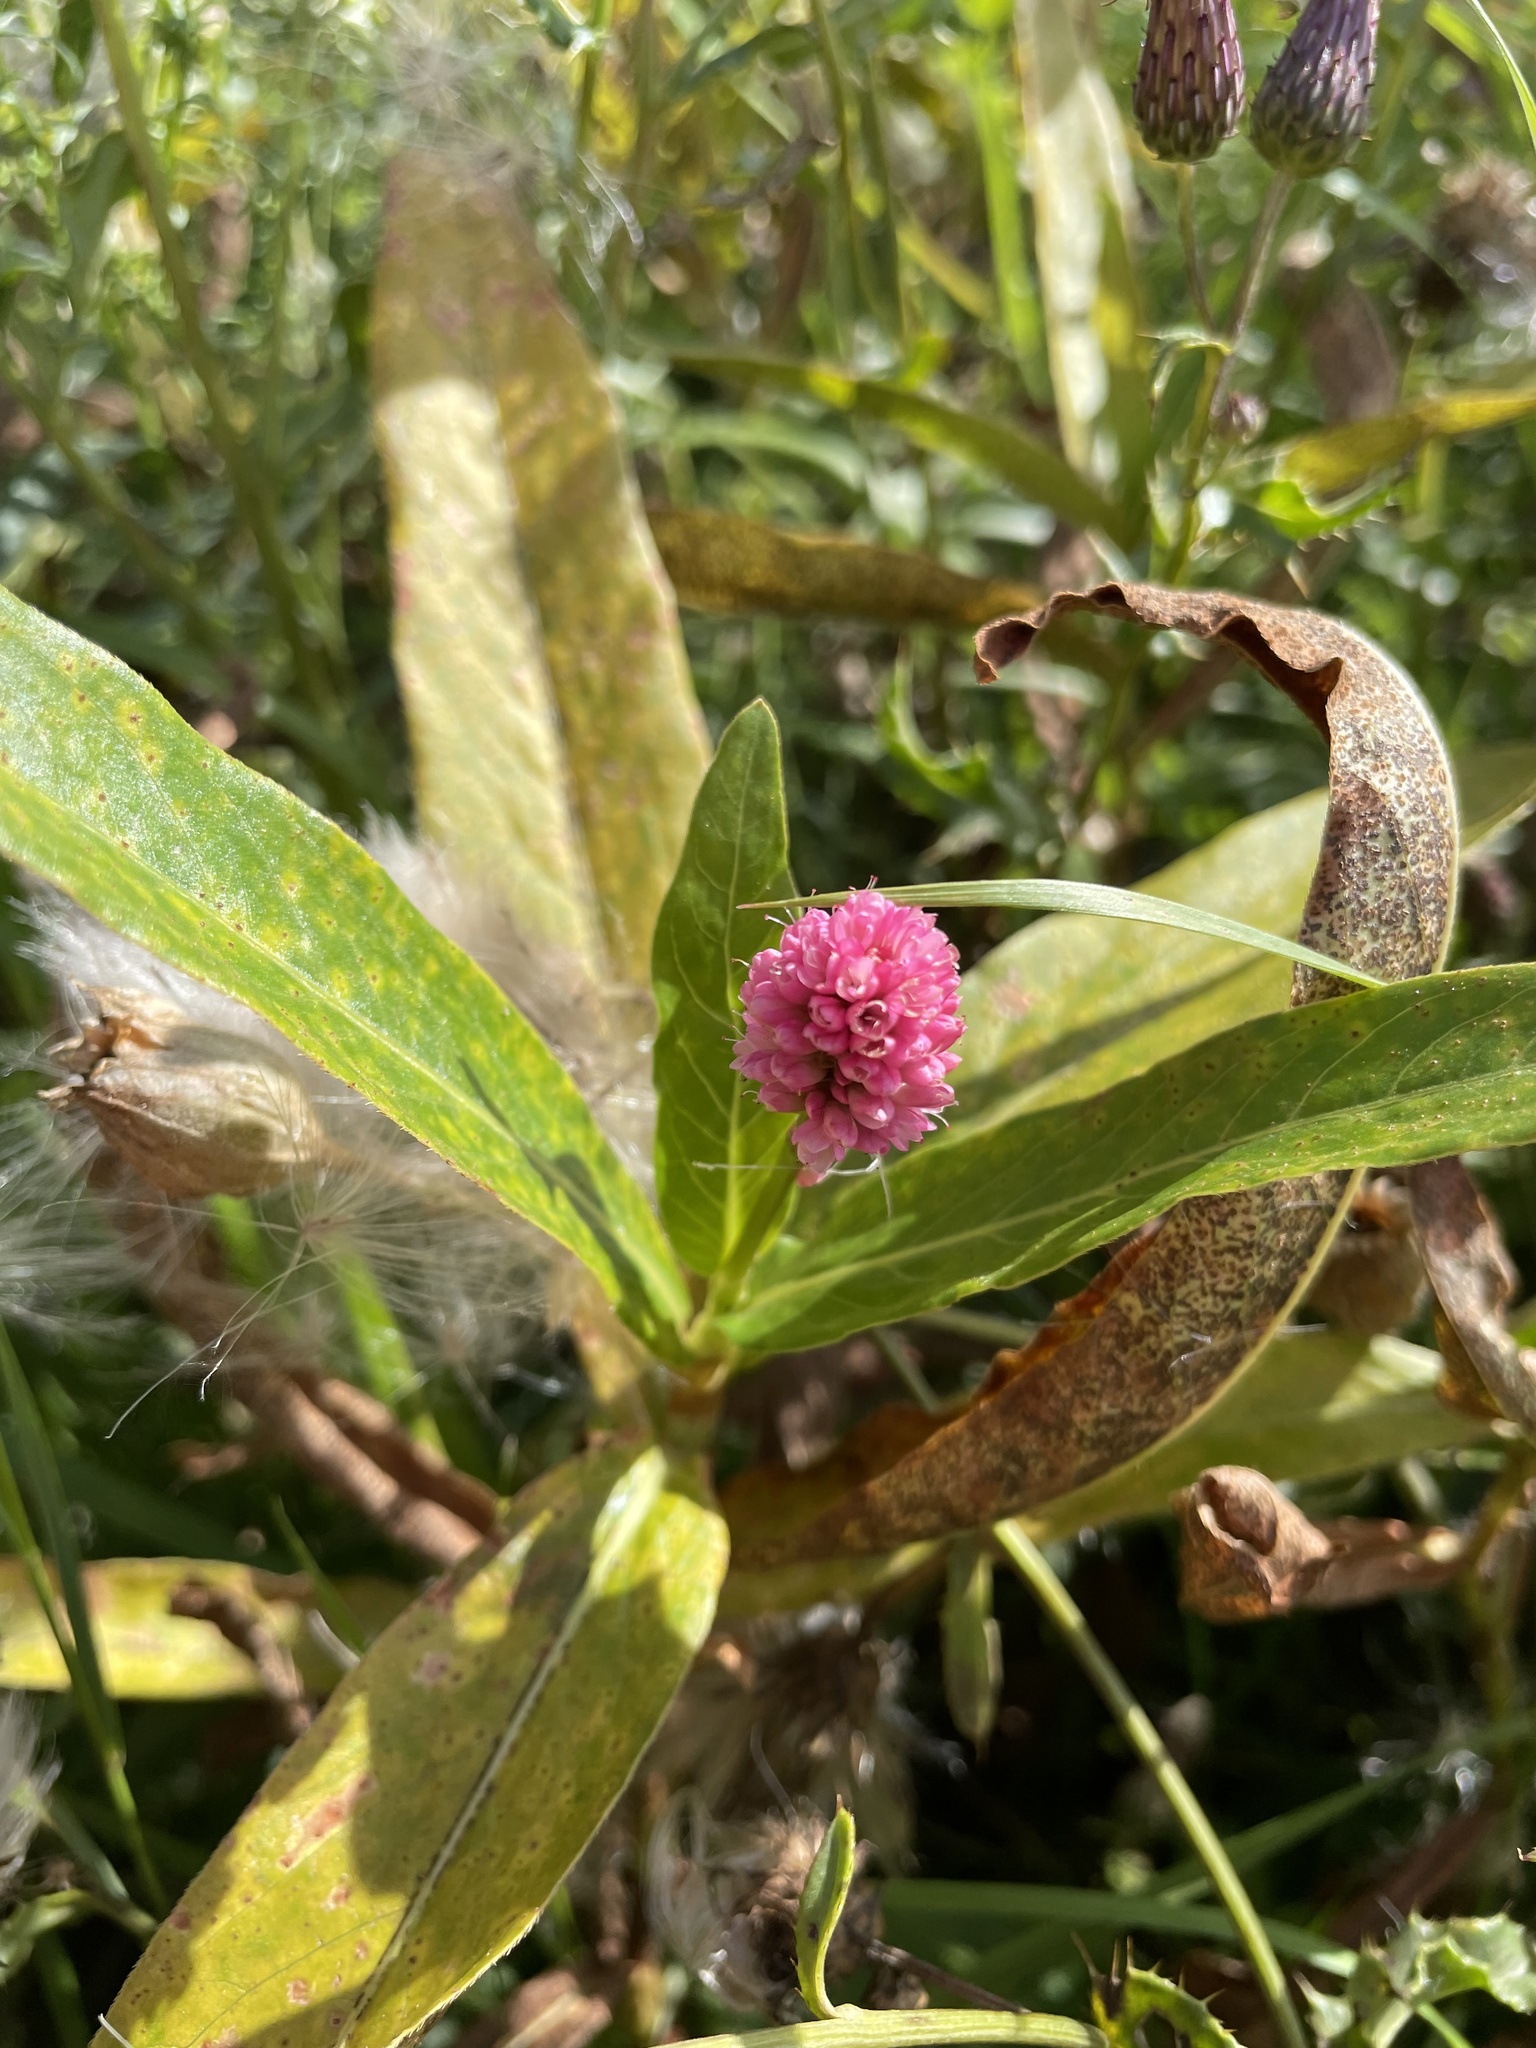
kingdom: Plantae
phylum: Tracheophyta
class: Magnoliopsida
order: Caryophyllales
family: Polygonaceae
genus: Persicaria
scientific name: Persicaria amphibia
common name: Amphibious bistort
